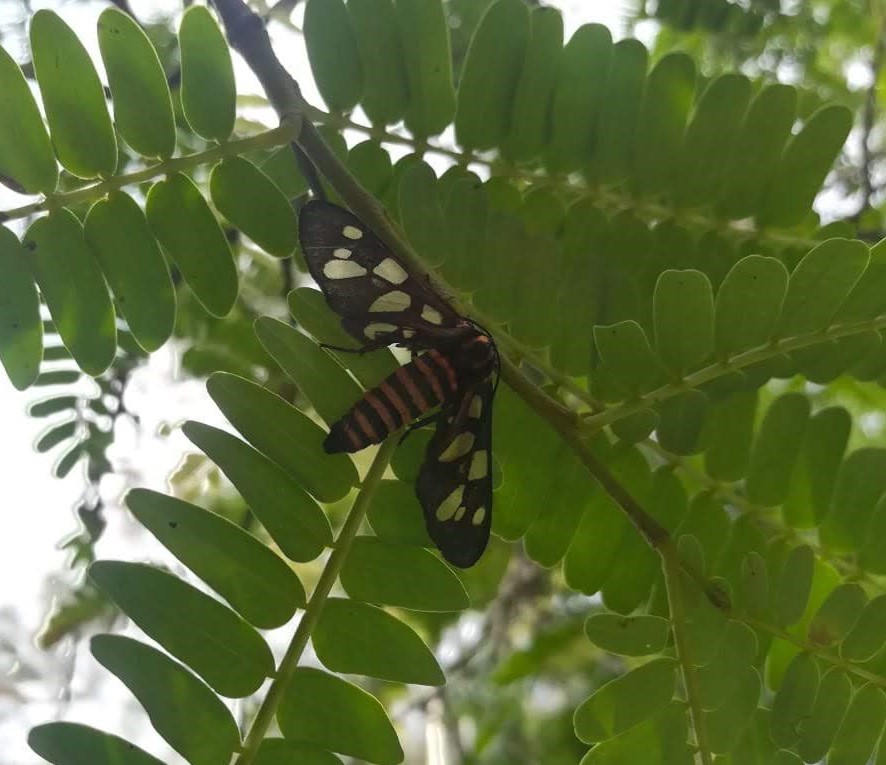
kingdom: Animalia
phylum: Arthropoda
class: Insecta
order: Lepidoptera
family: Erebidae
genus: Amata
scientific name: Amata passalis
